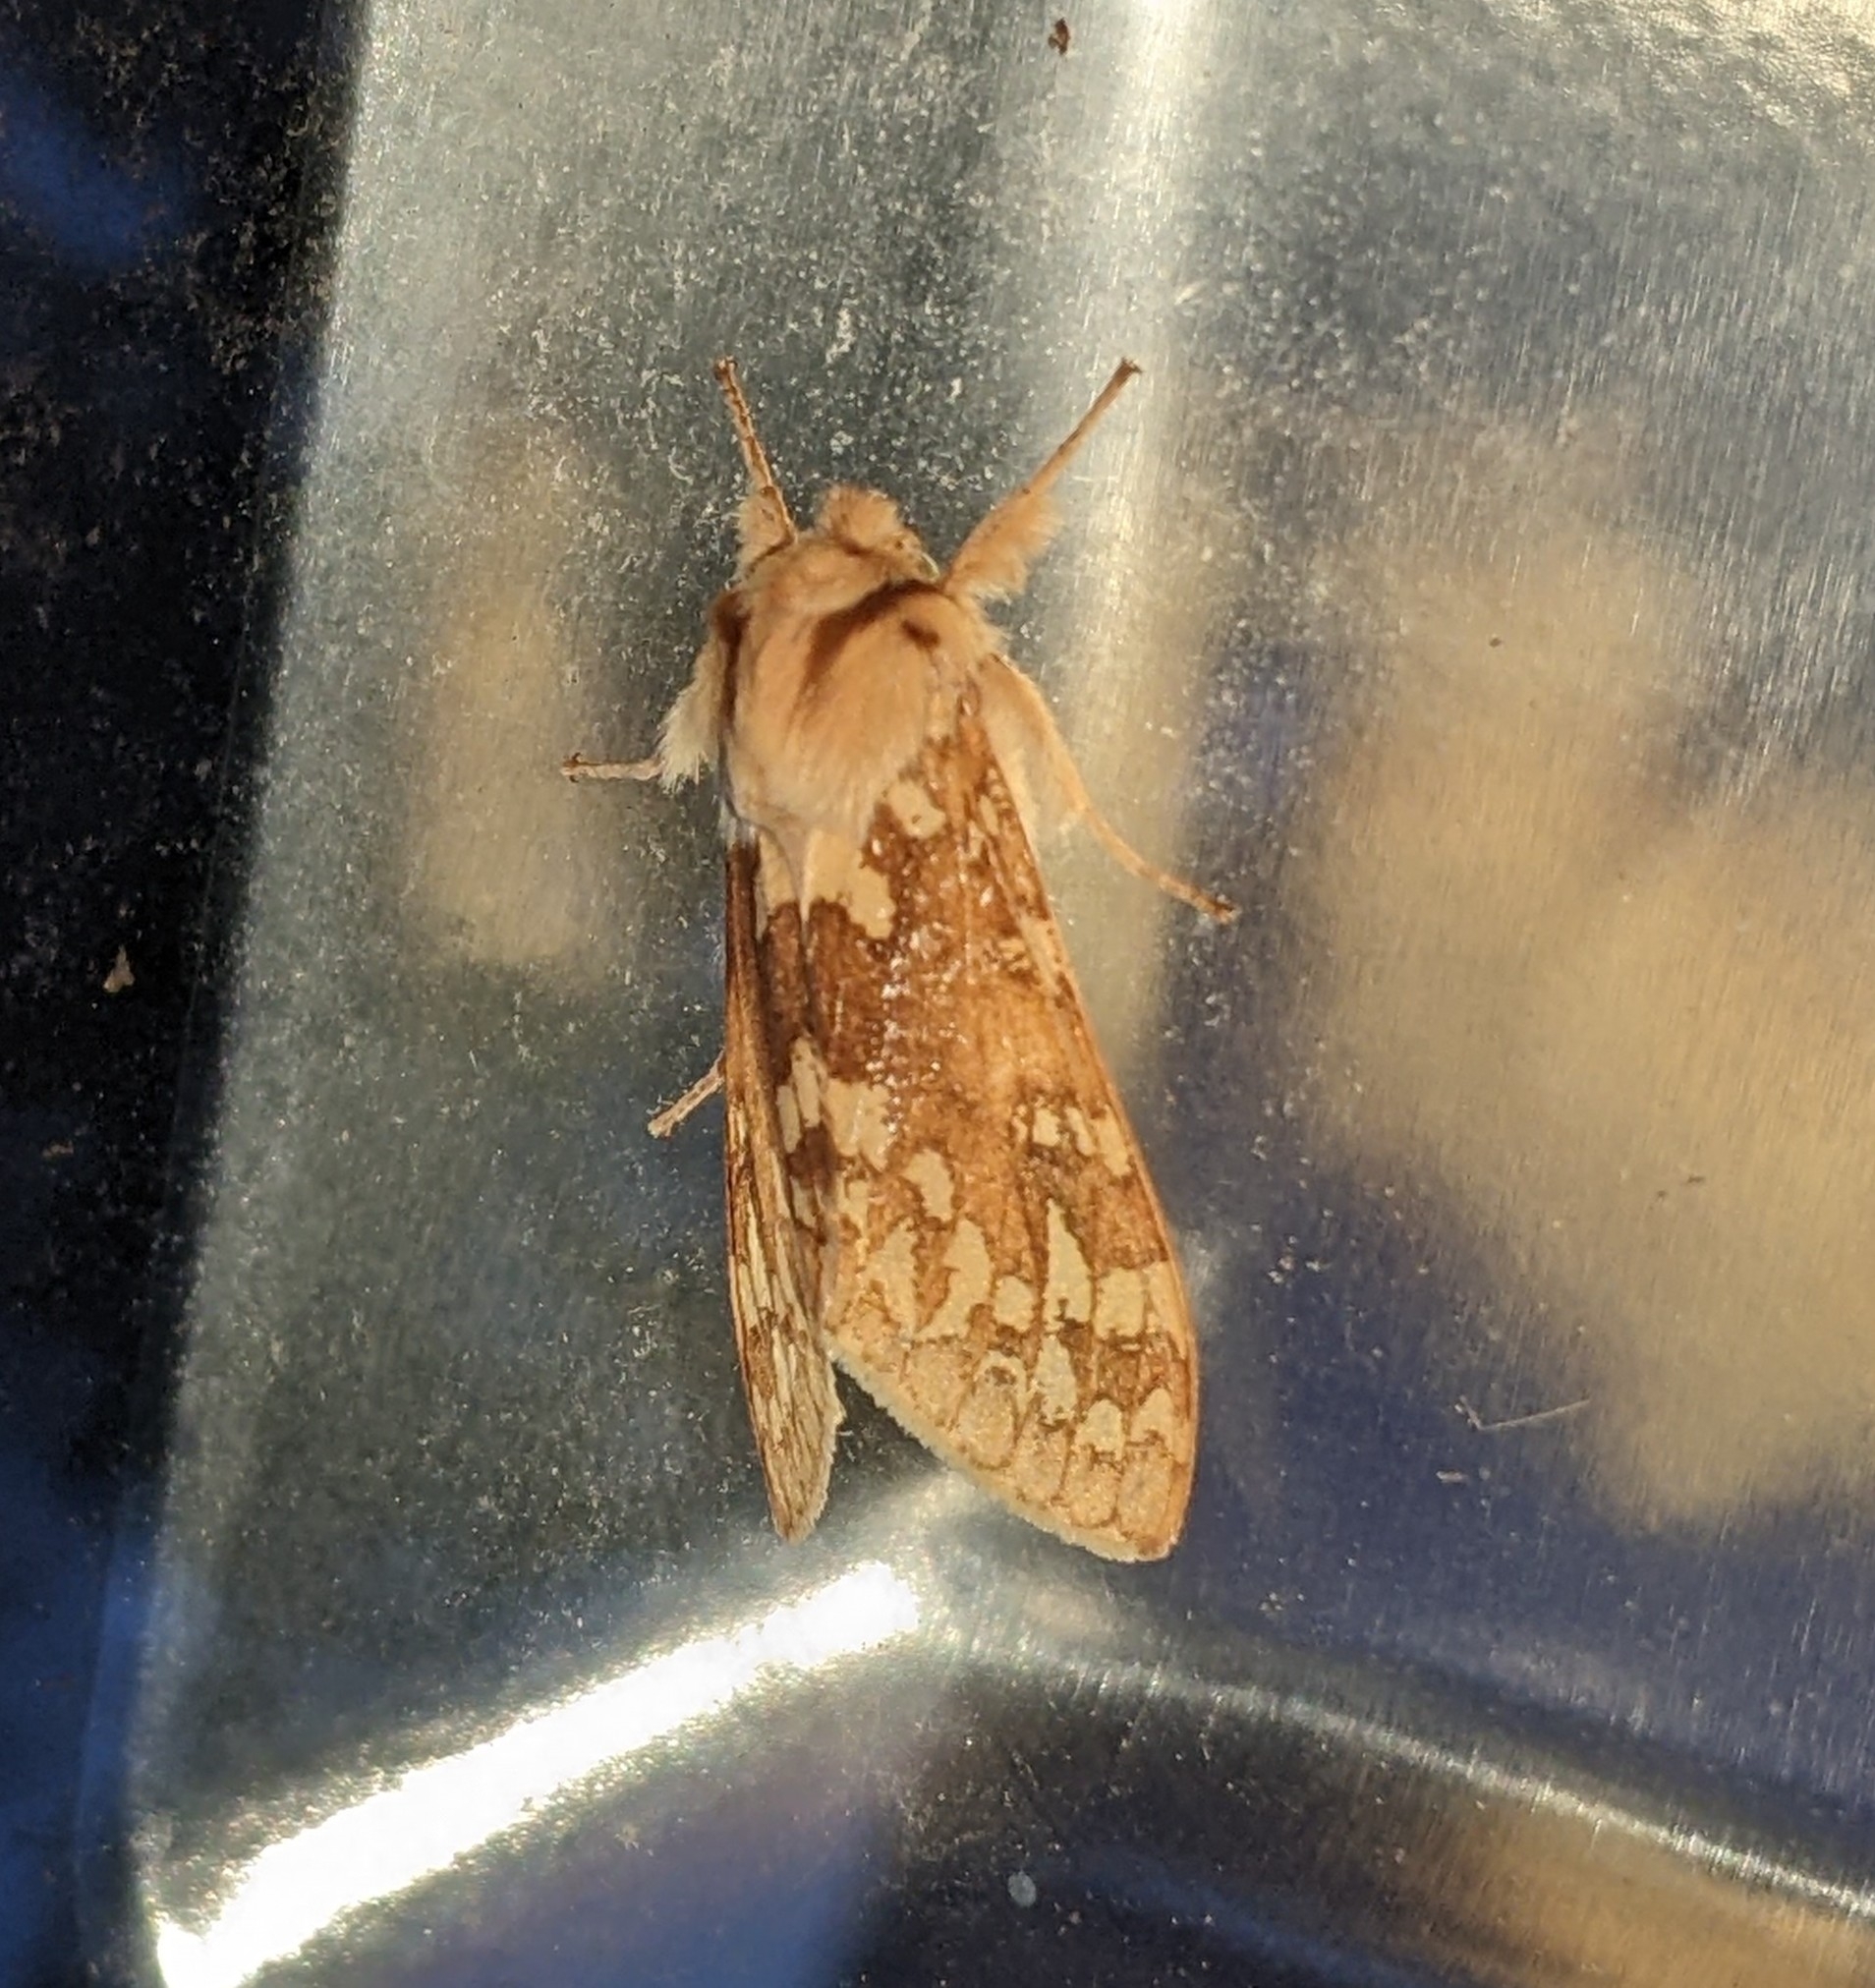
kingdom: Animalia
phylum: Arthropoda
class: Insecta
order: Lepidoptera
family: Erebidae
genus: Lophocampa
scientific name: Lophocampa maculata
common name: Spotted tussock moth
